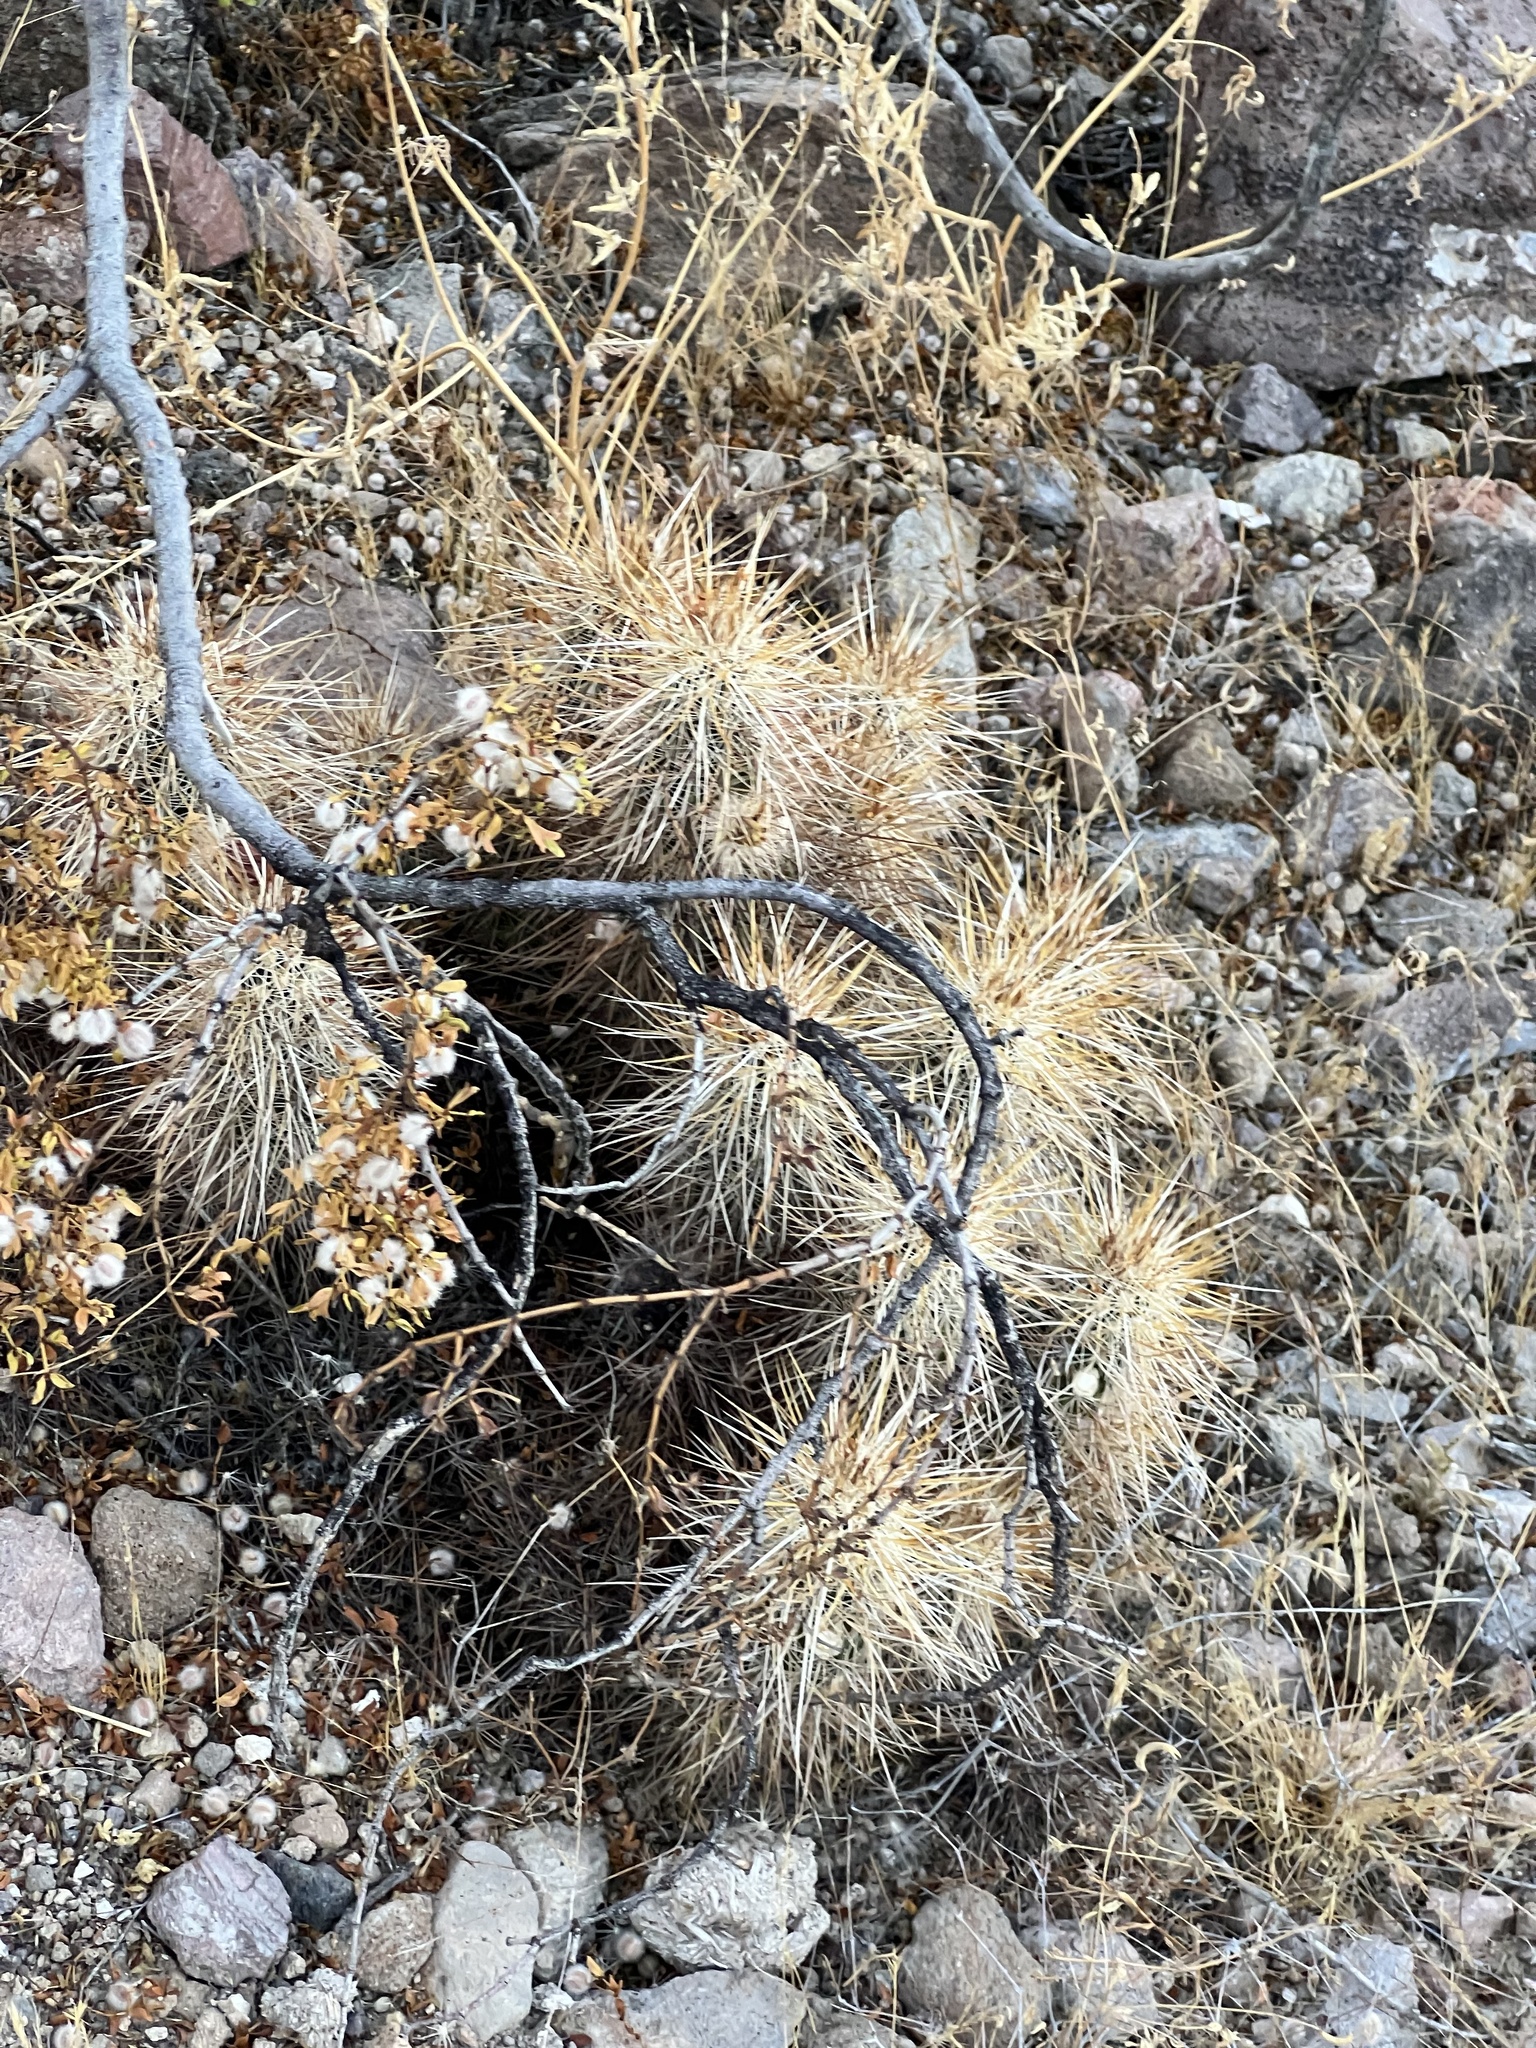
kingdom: Plantae
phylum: Tracheophyta
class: Magnoliopsida
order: Caryophyllales
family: Cactaceae
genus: Echinocereus
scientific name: Echinocereus engelmannii
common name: Engelmann's hedgehog cactus
